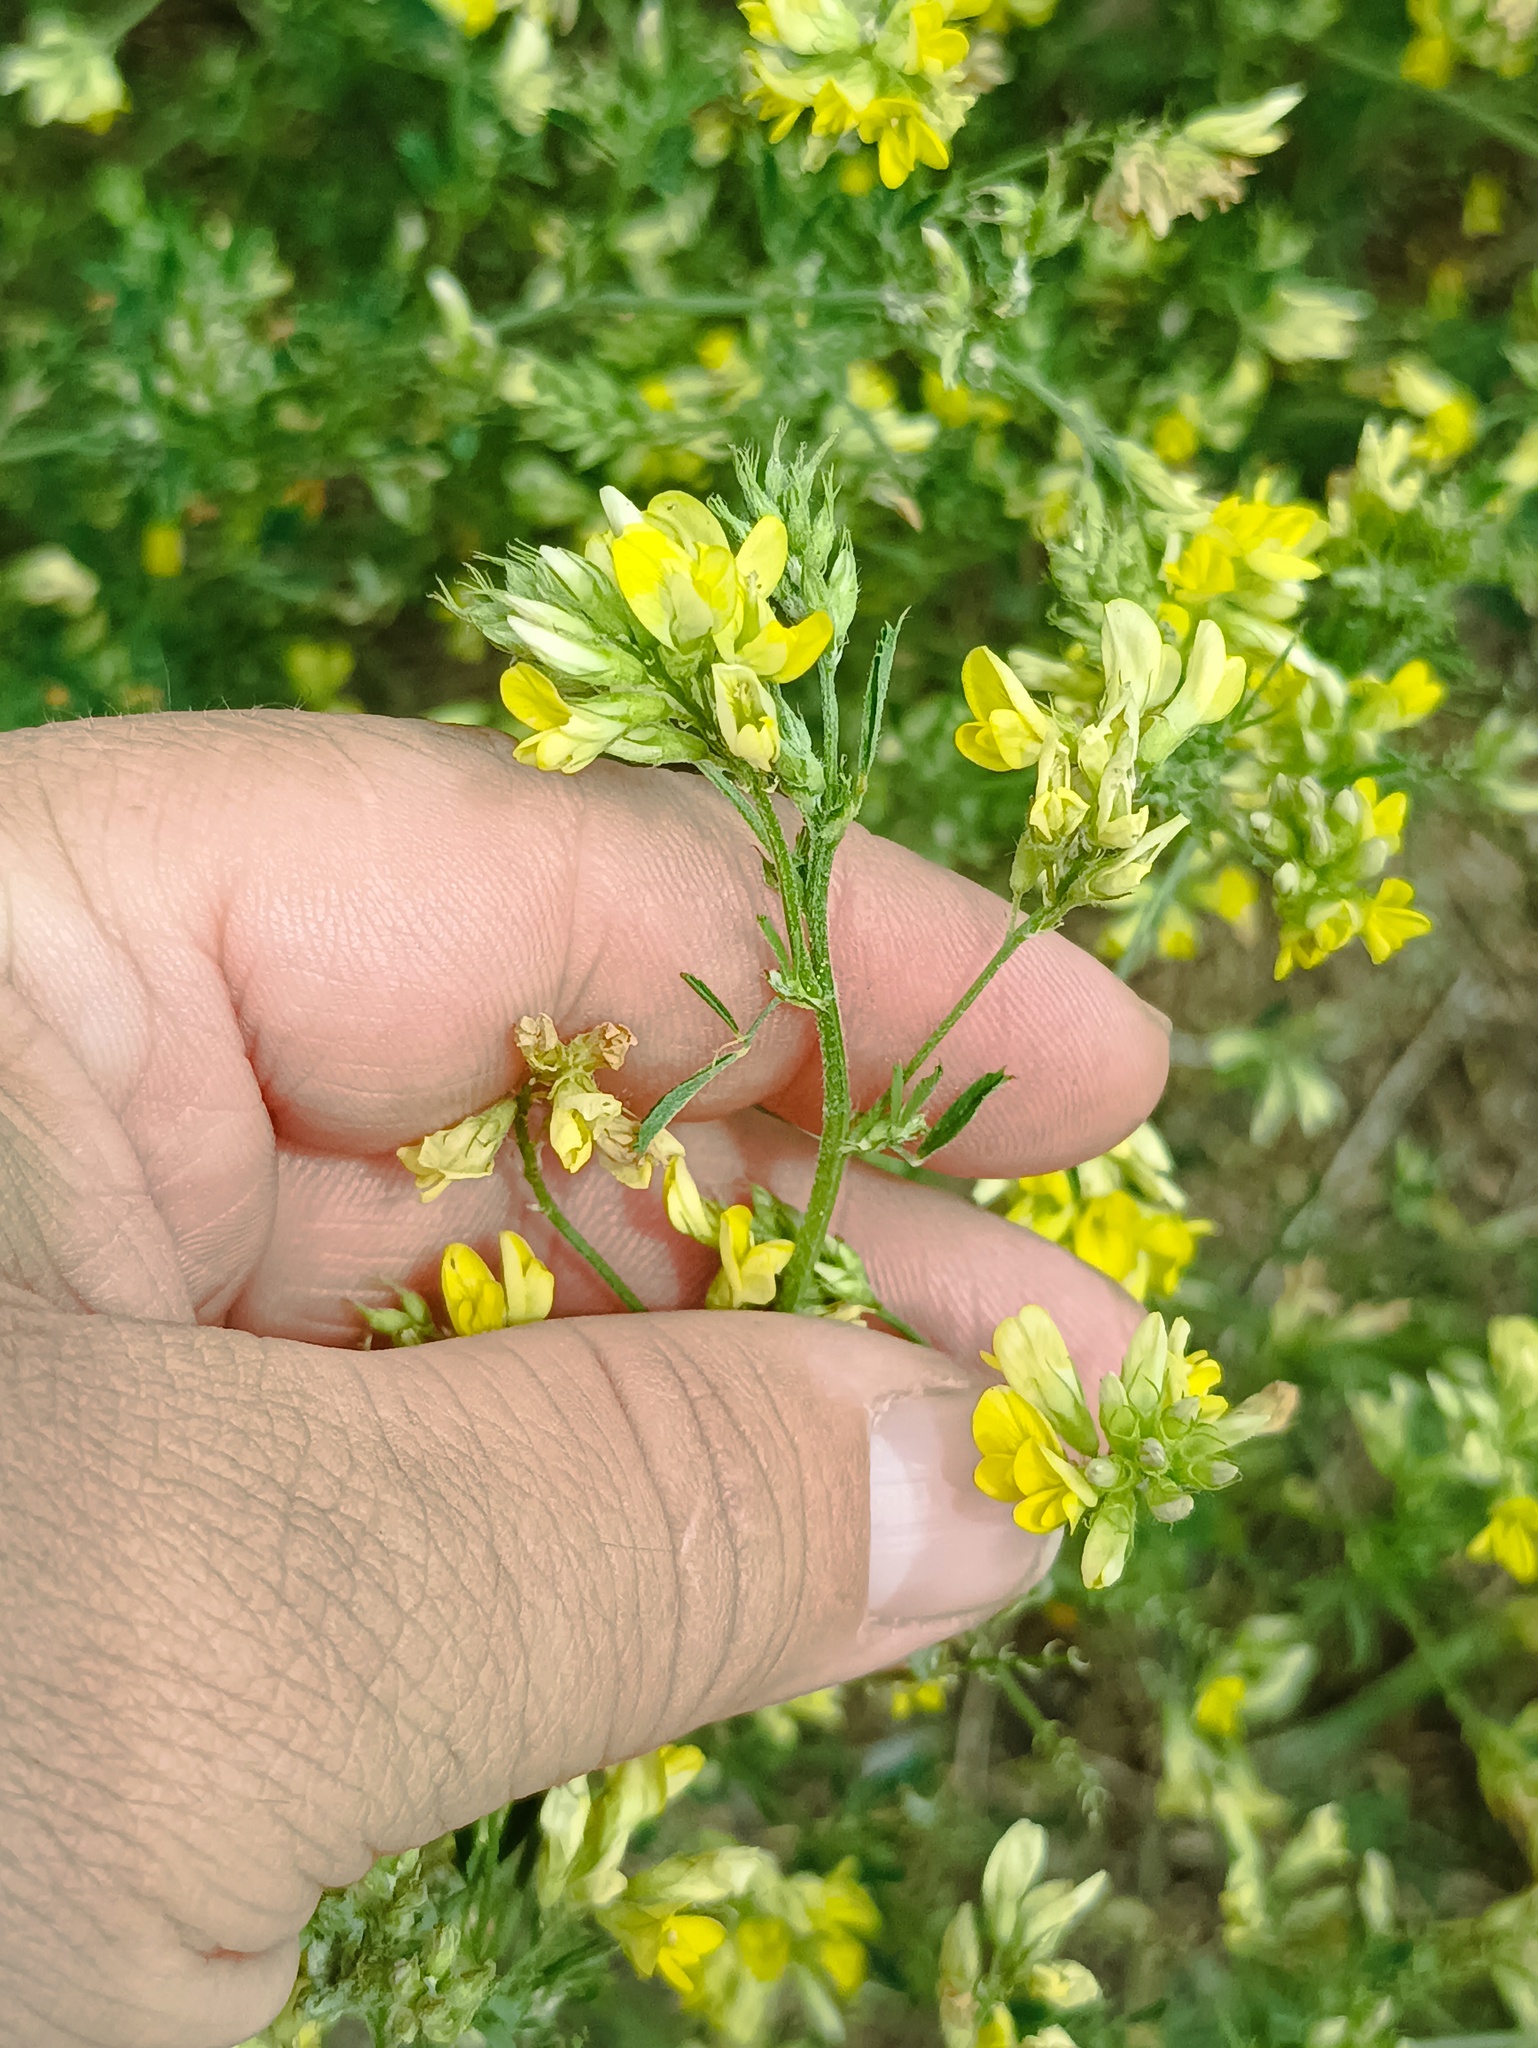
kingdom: Plantae
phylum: Tracheophyta
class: Magnoliopsida
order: Fabales
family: Fabaceae
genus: Medicago
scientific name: Medicago falcata
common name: Sickle medick
